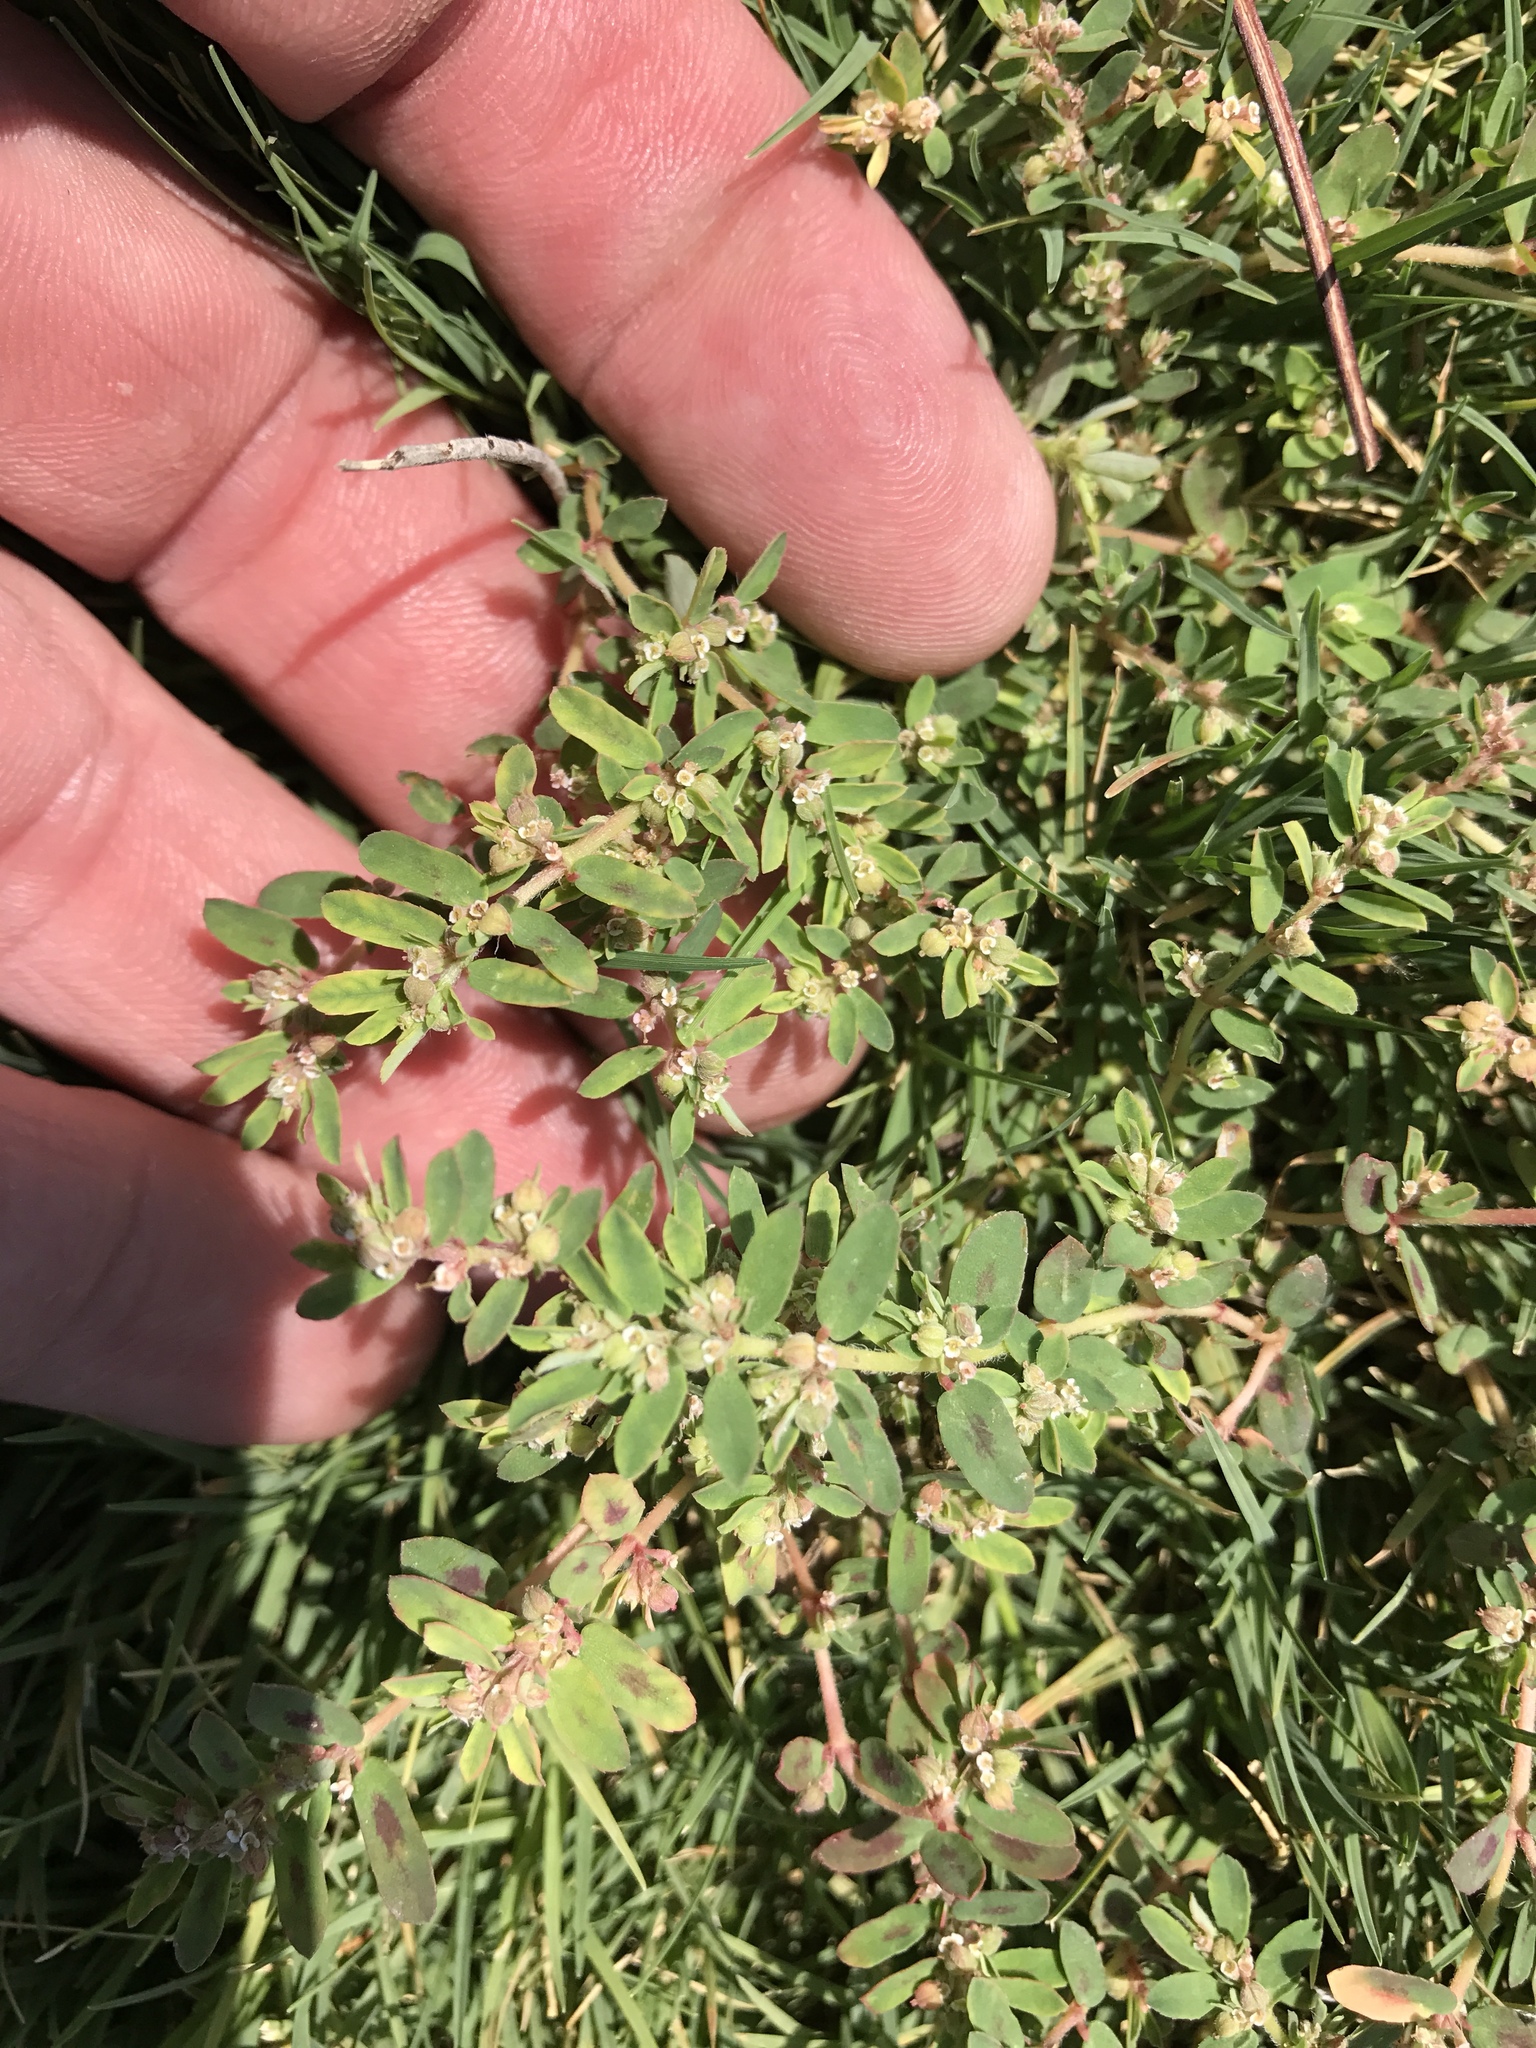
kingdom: Plantae
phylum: Tracheophyta
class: Magnoliopsida
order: Malpighiales
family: Euphorbiaceae
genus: Euphorbia
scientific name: Euphorbia maculata
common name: Spotted spurge
